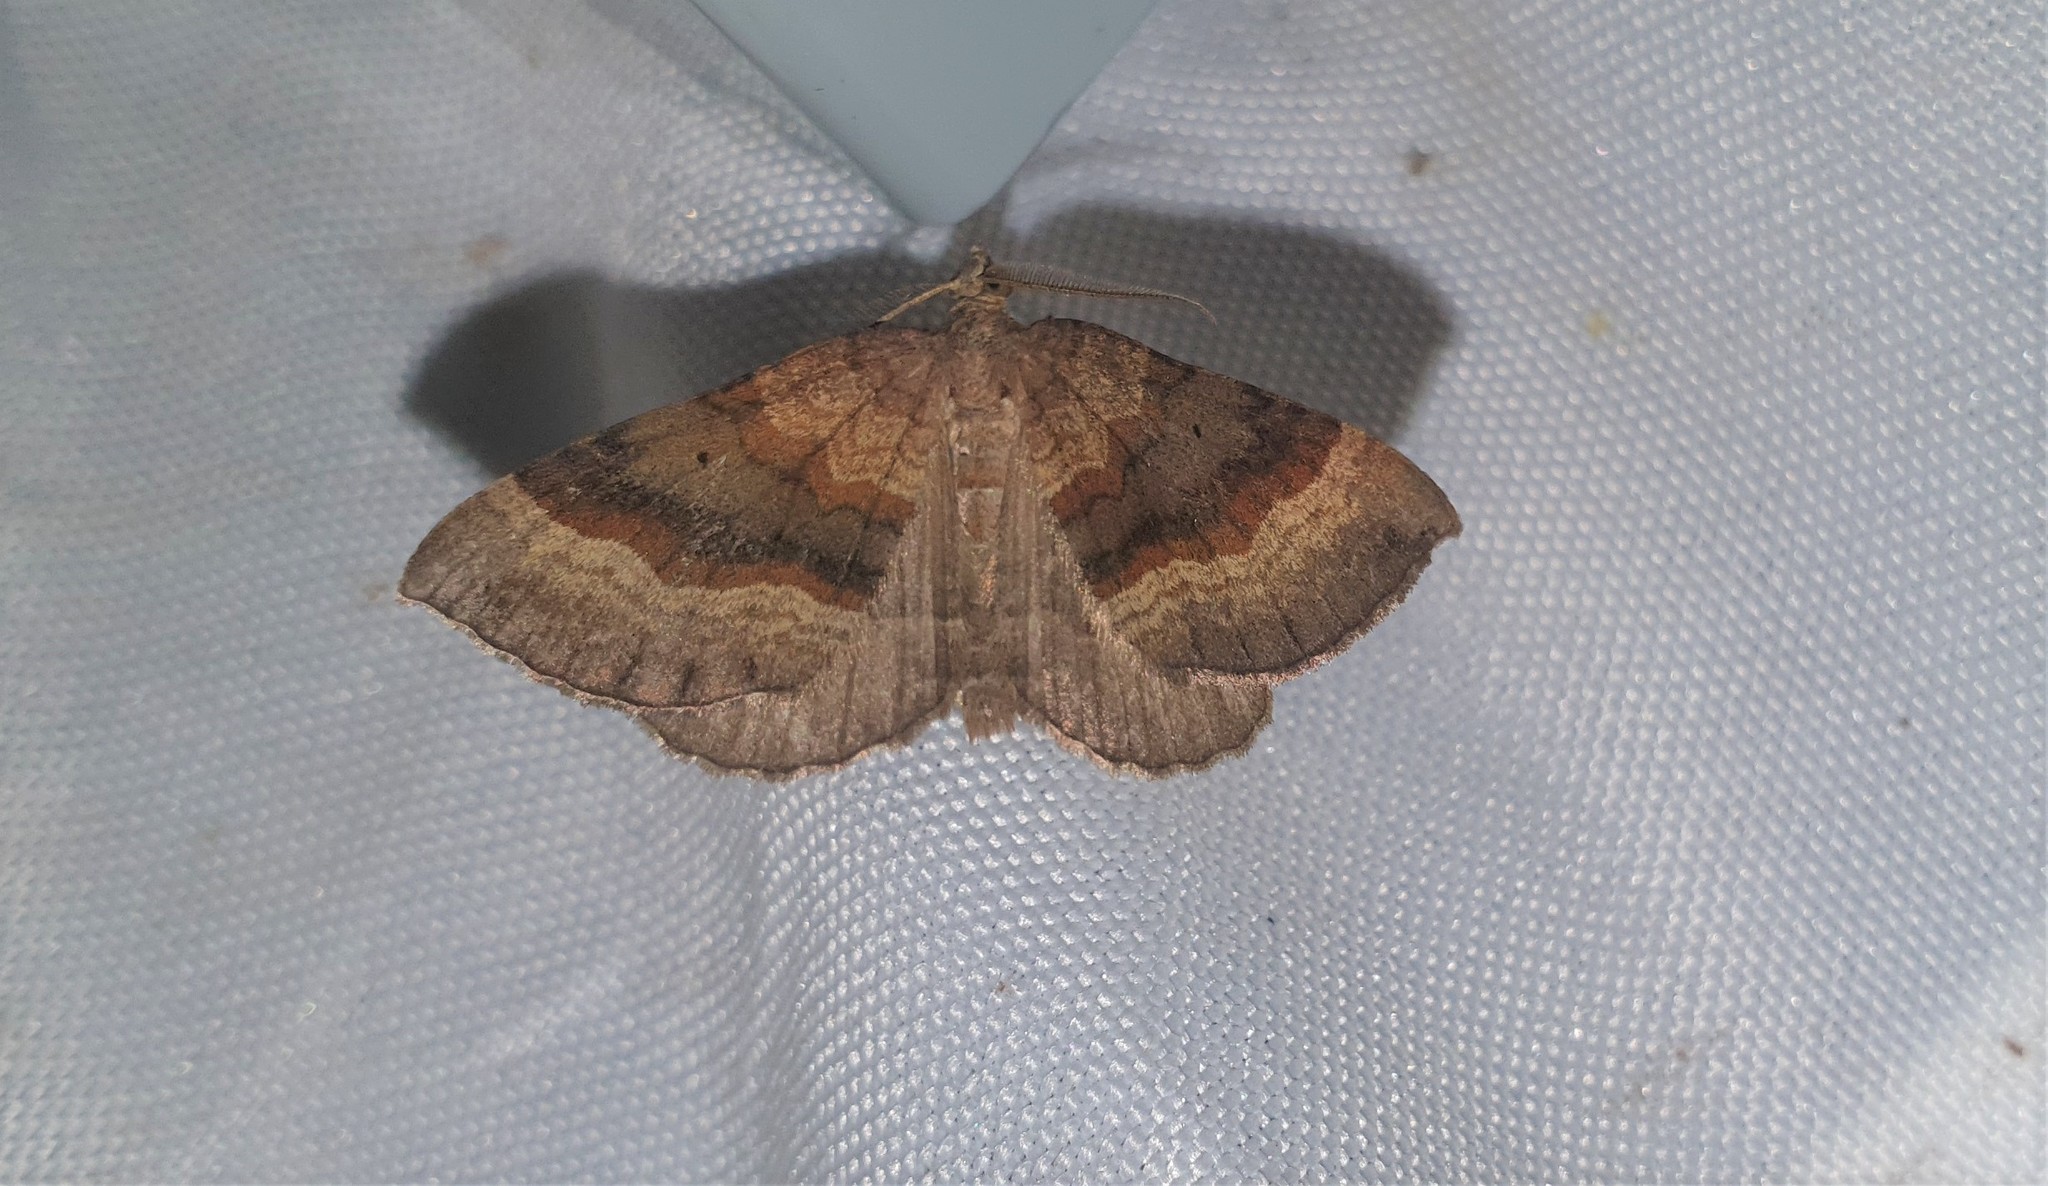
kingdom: Animalia
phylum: Arthropoda
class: Insecta
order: Lepidoptera
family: Geometridae
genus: Scotopteryx
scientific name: Scotopteryx chenopodiata
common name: Shaded broad-bar
